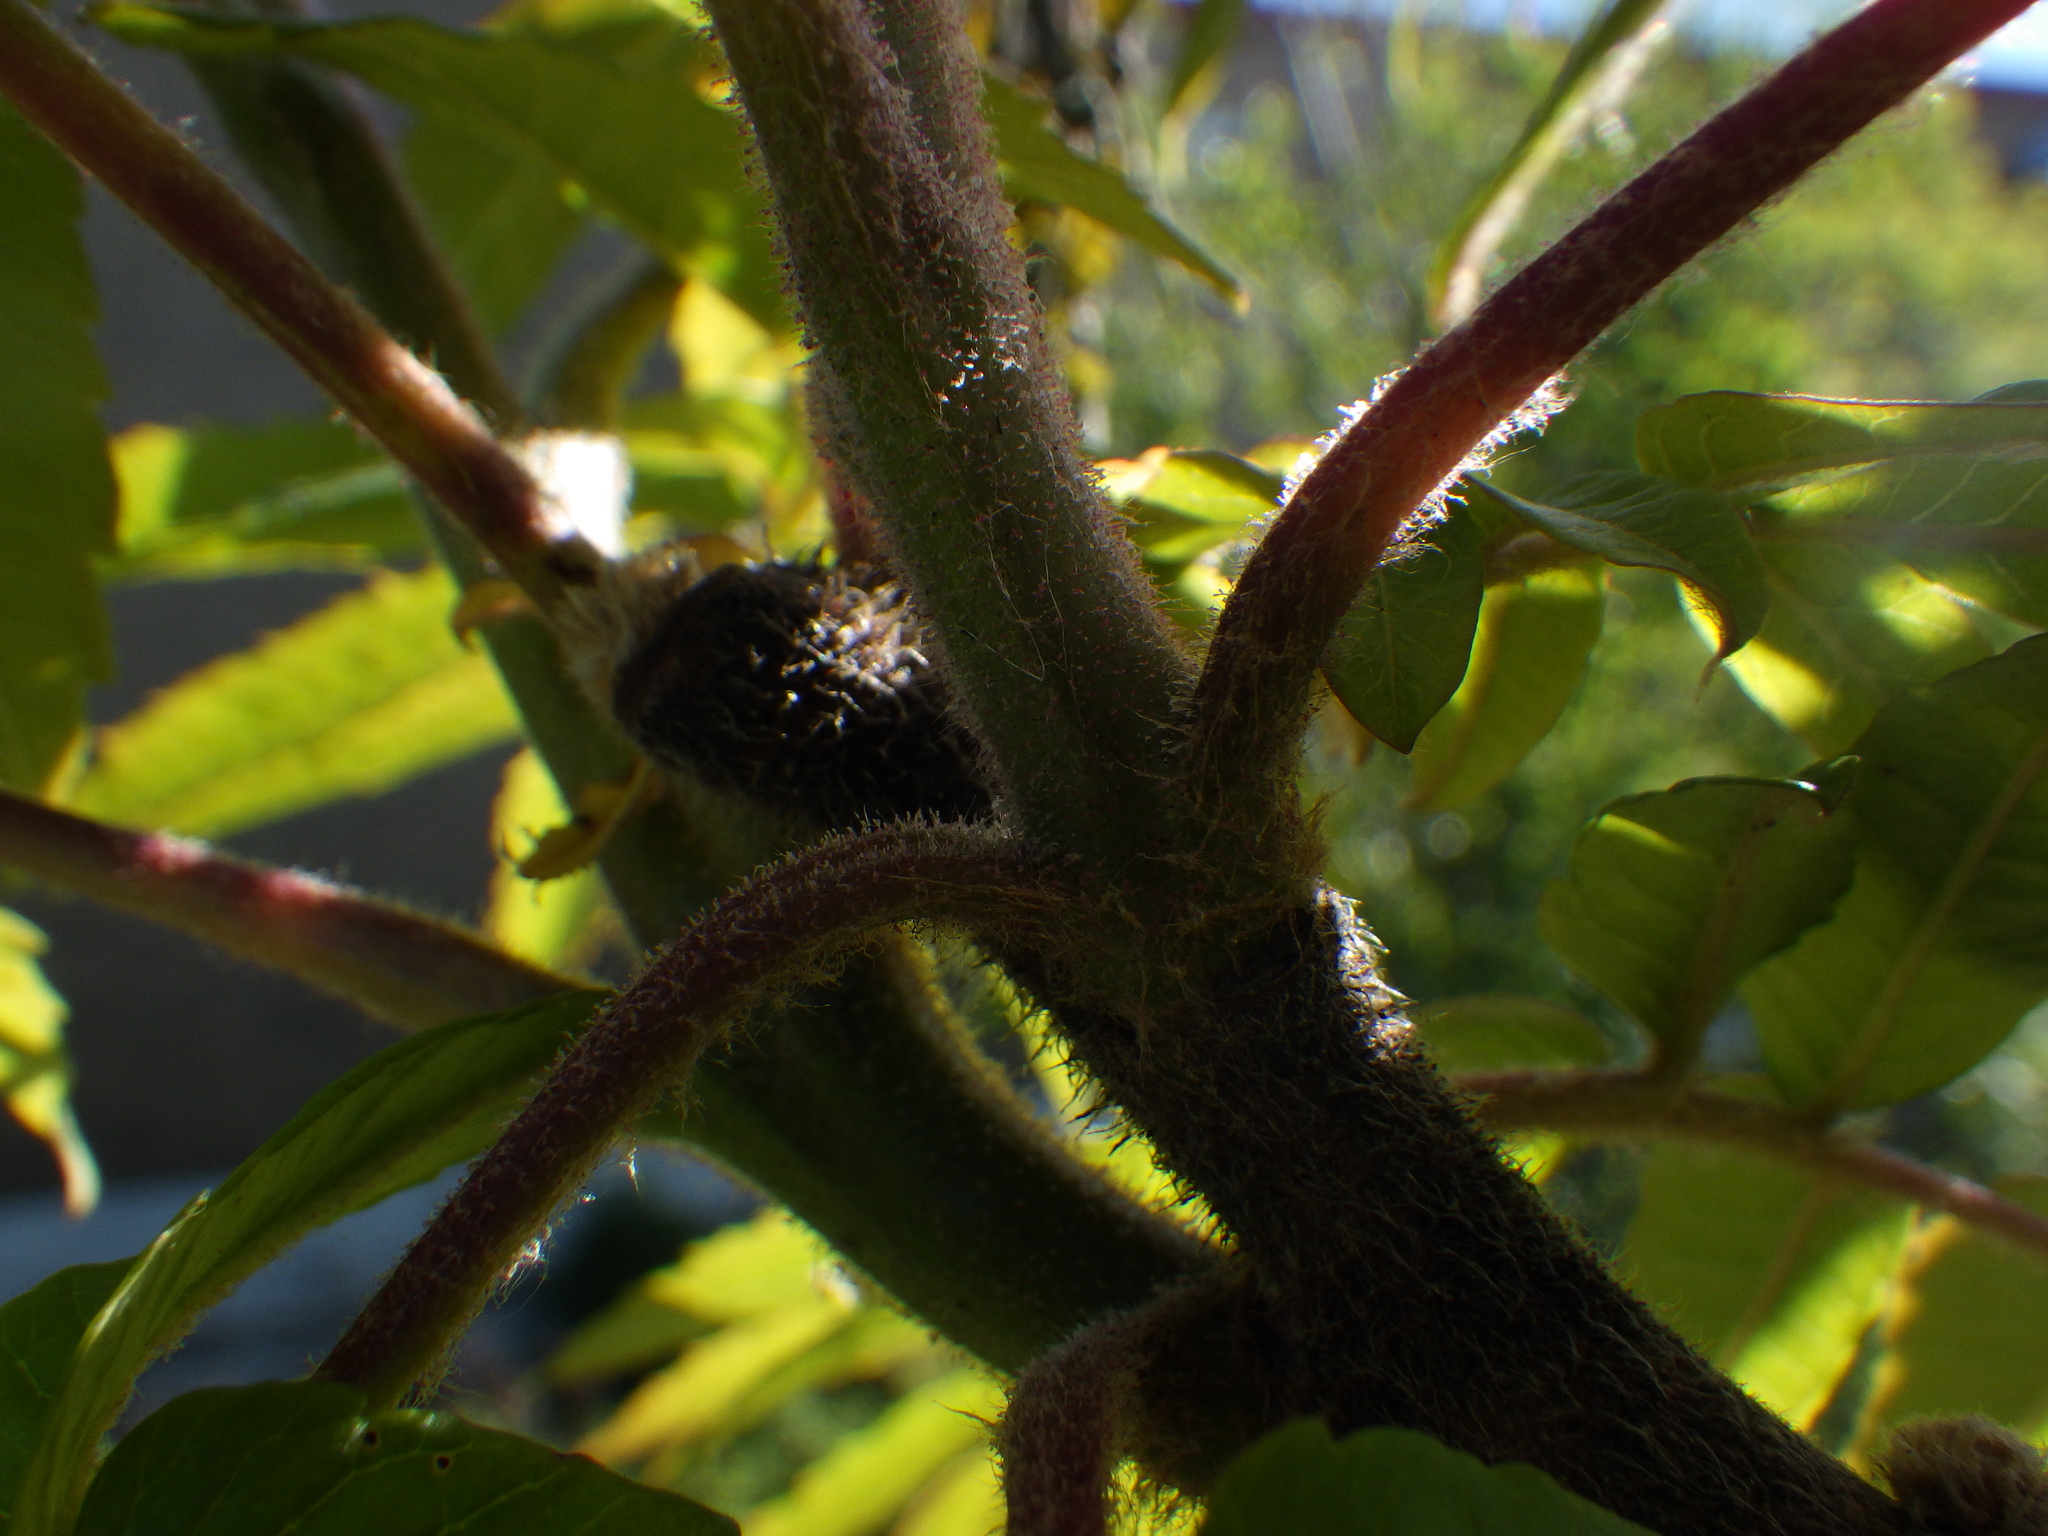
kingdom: Plantae
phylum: Tracheophyta
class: Magnoliopsida
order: Sapindales
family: Anacardiaceae
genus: Rhus
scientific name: Rhus typhina
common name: Staghorn sumac
